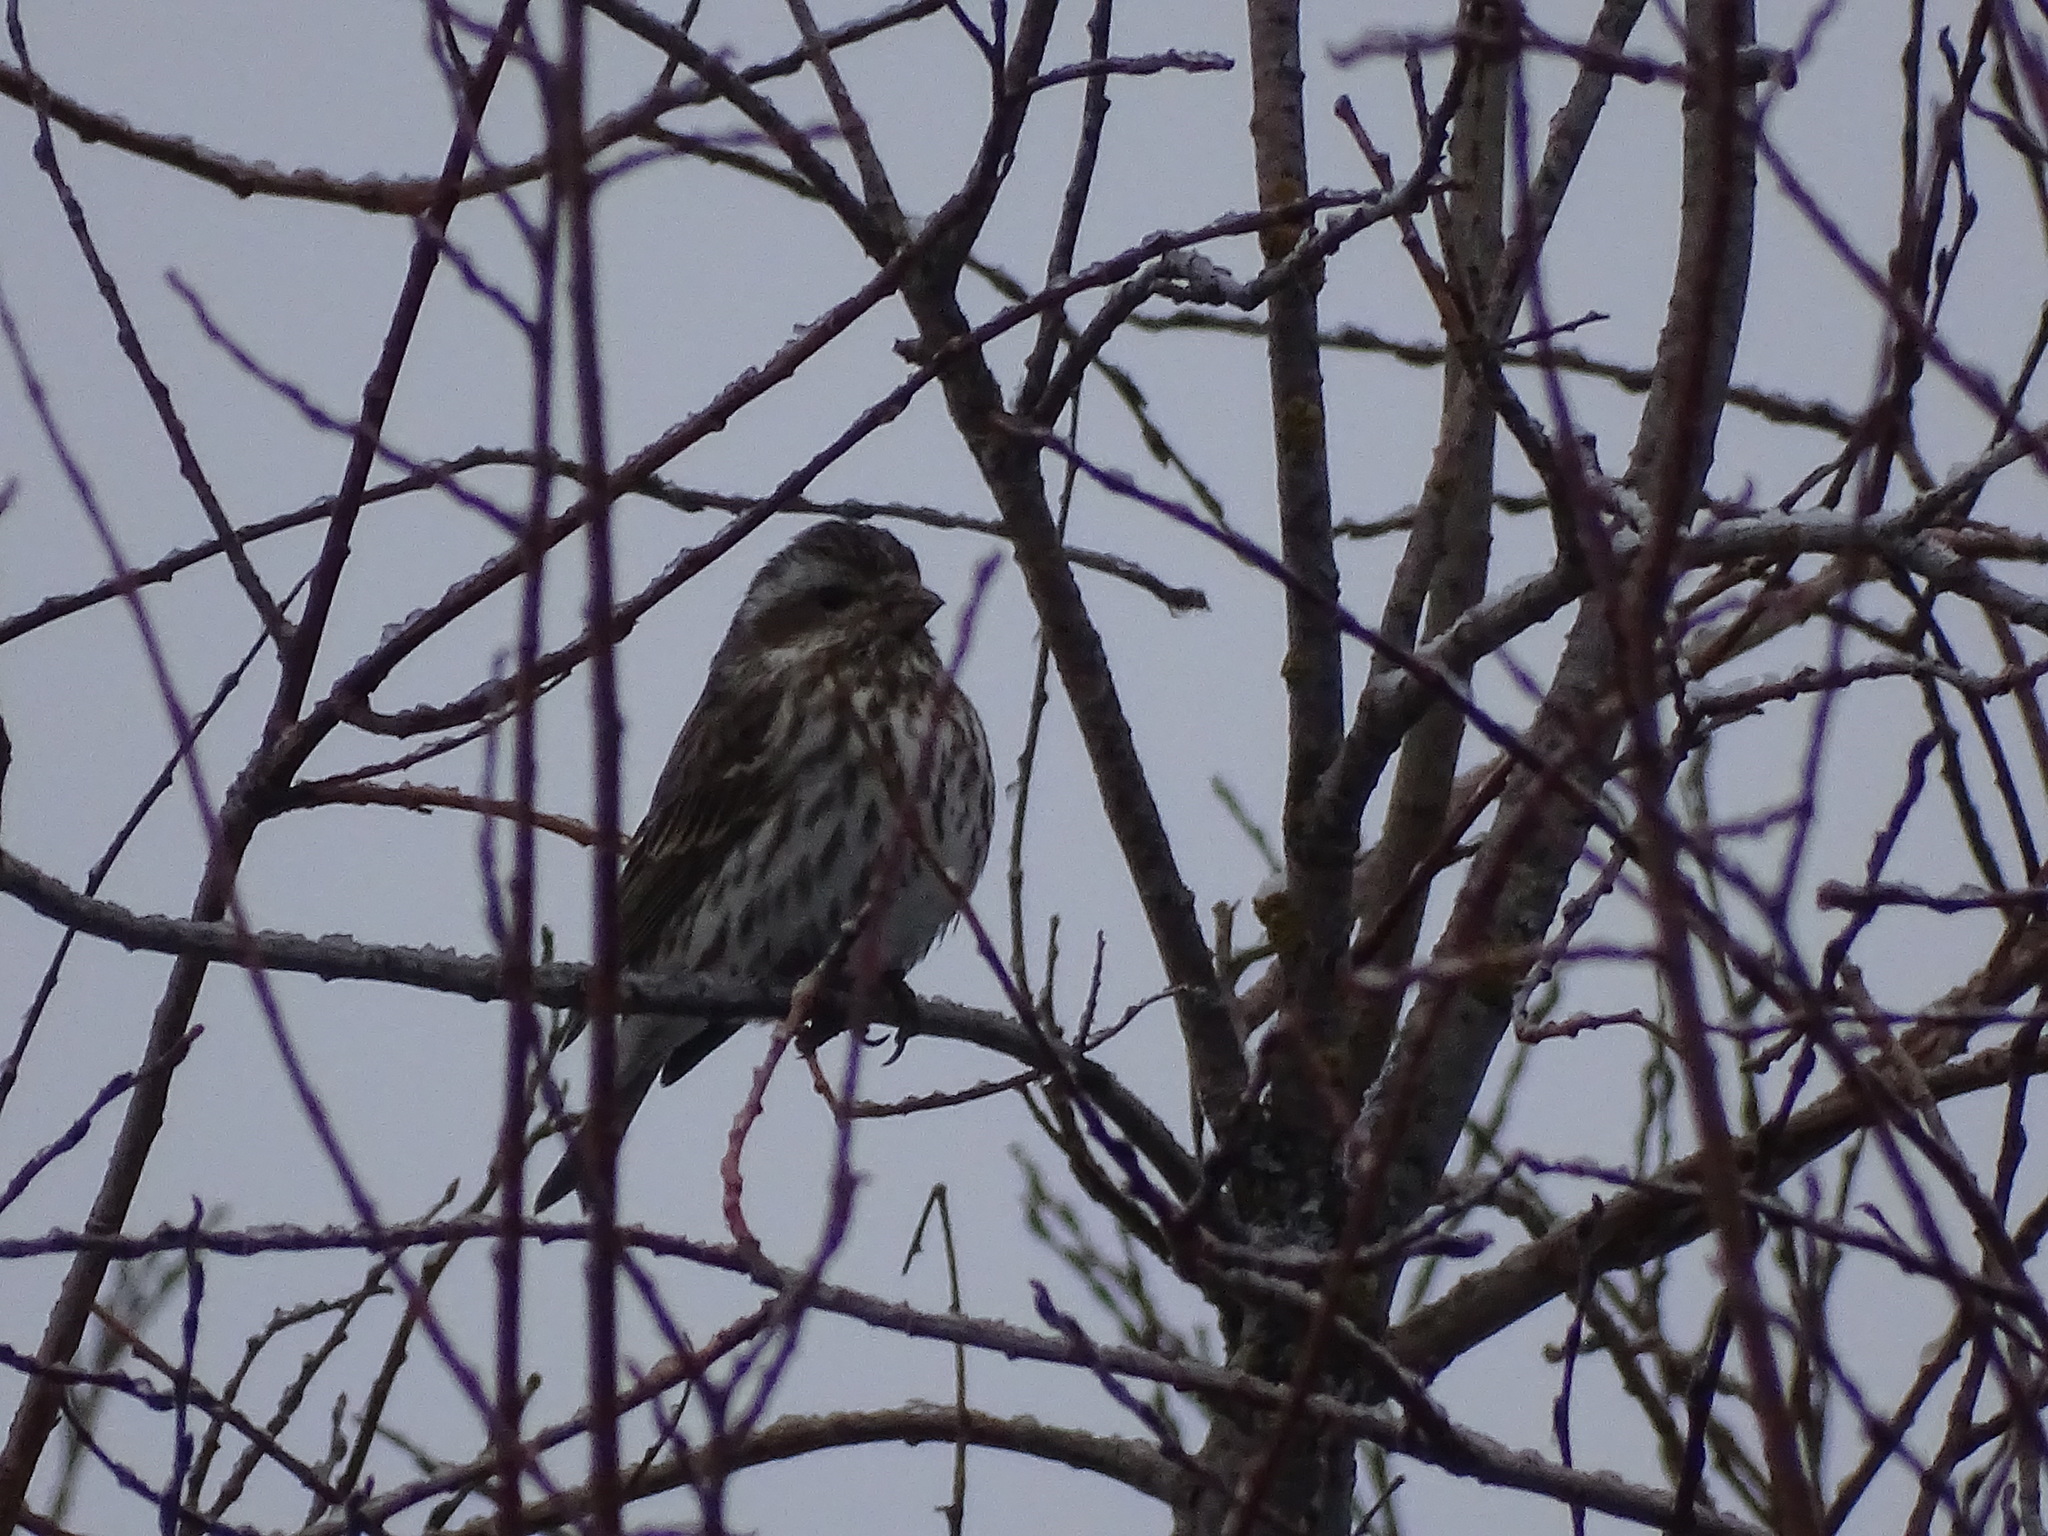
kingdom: Animalia
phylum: Chordata
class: Aves
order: Passeriformes
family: Fringillidae
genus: Haemorhous
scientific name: Haemorhous purpureus
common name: Purple finch
